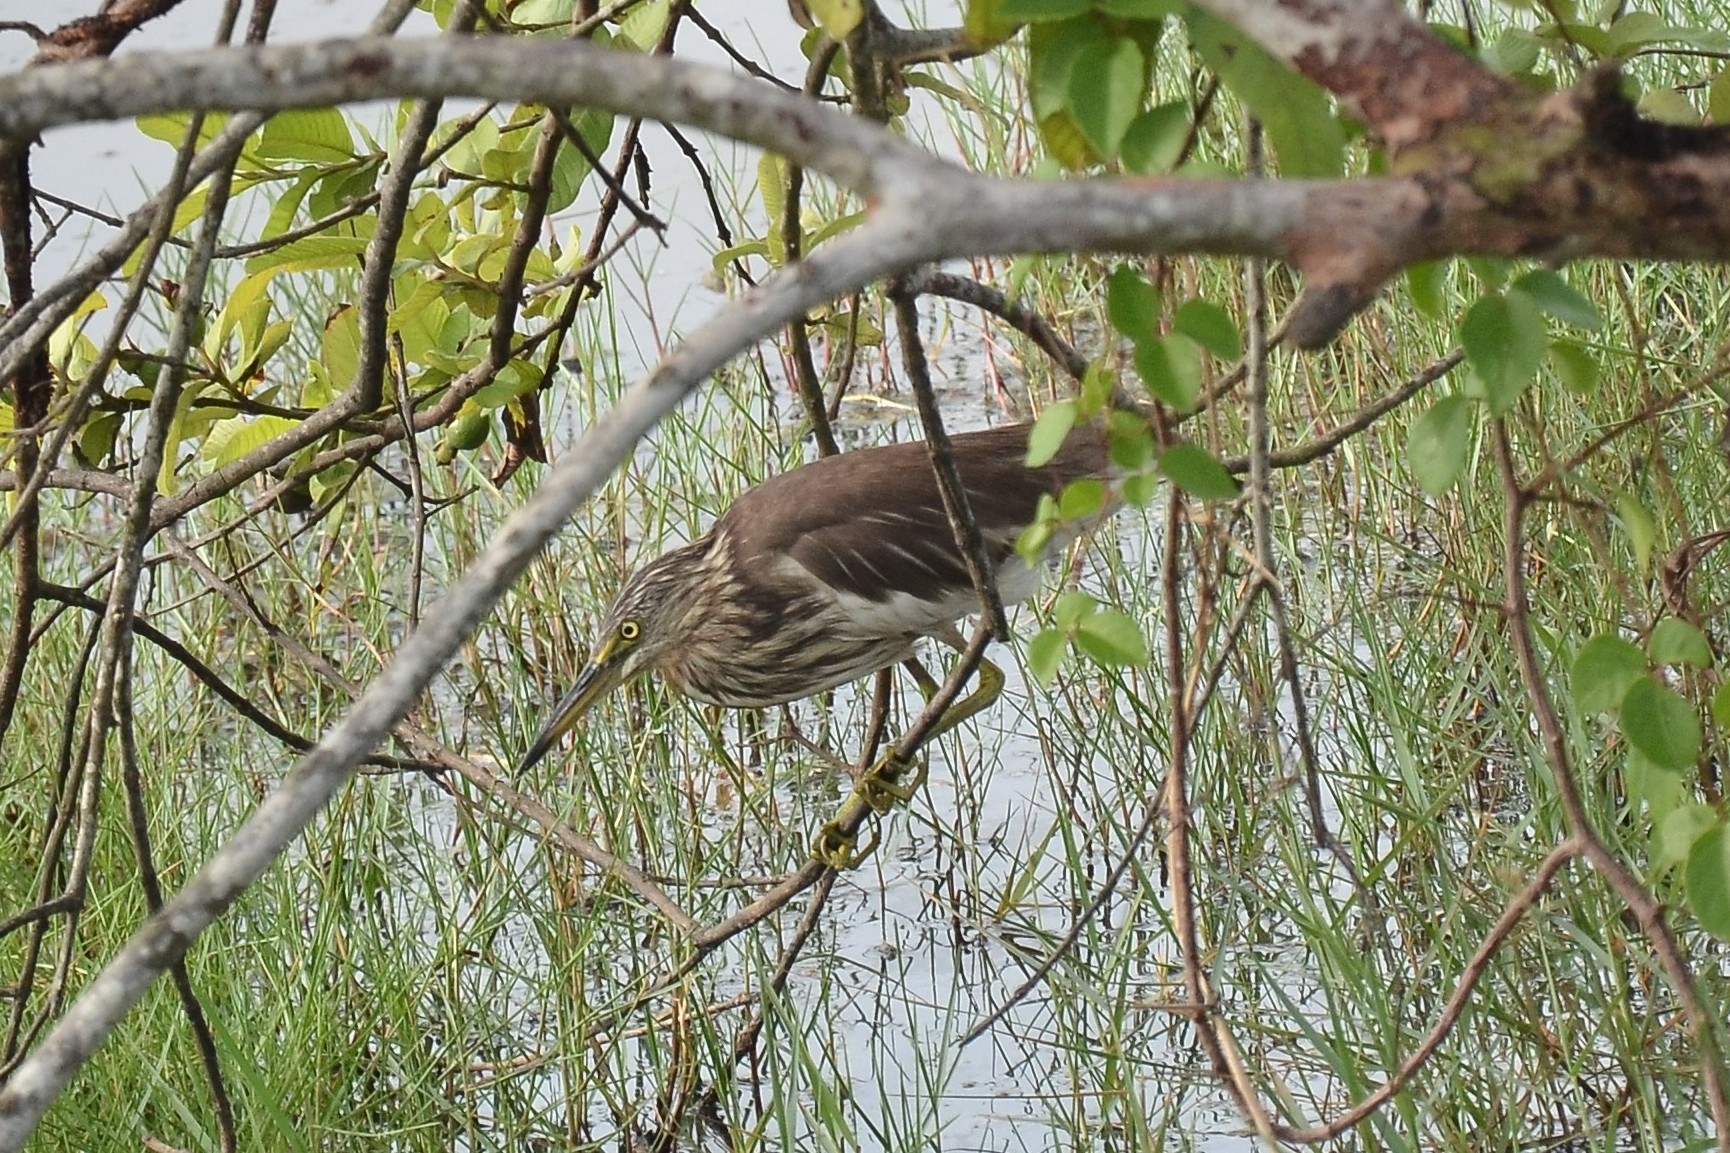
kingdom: Animalia
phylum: Chordata
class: Aves
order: Pelecaniformes
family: Ardeidae
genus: Ardeola
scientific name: Ardeola grayii
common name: Indian pond heron
